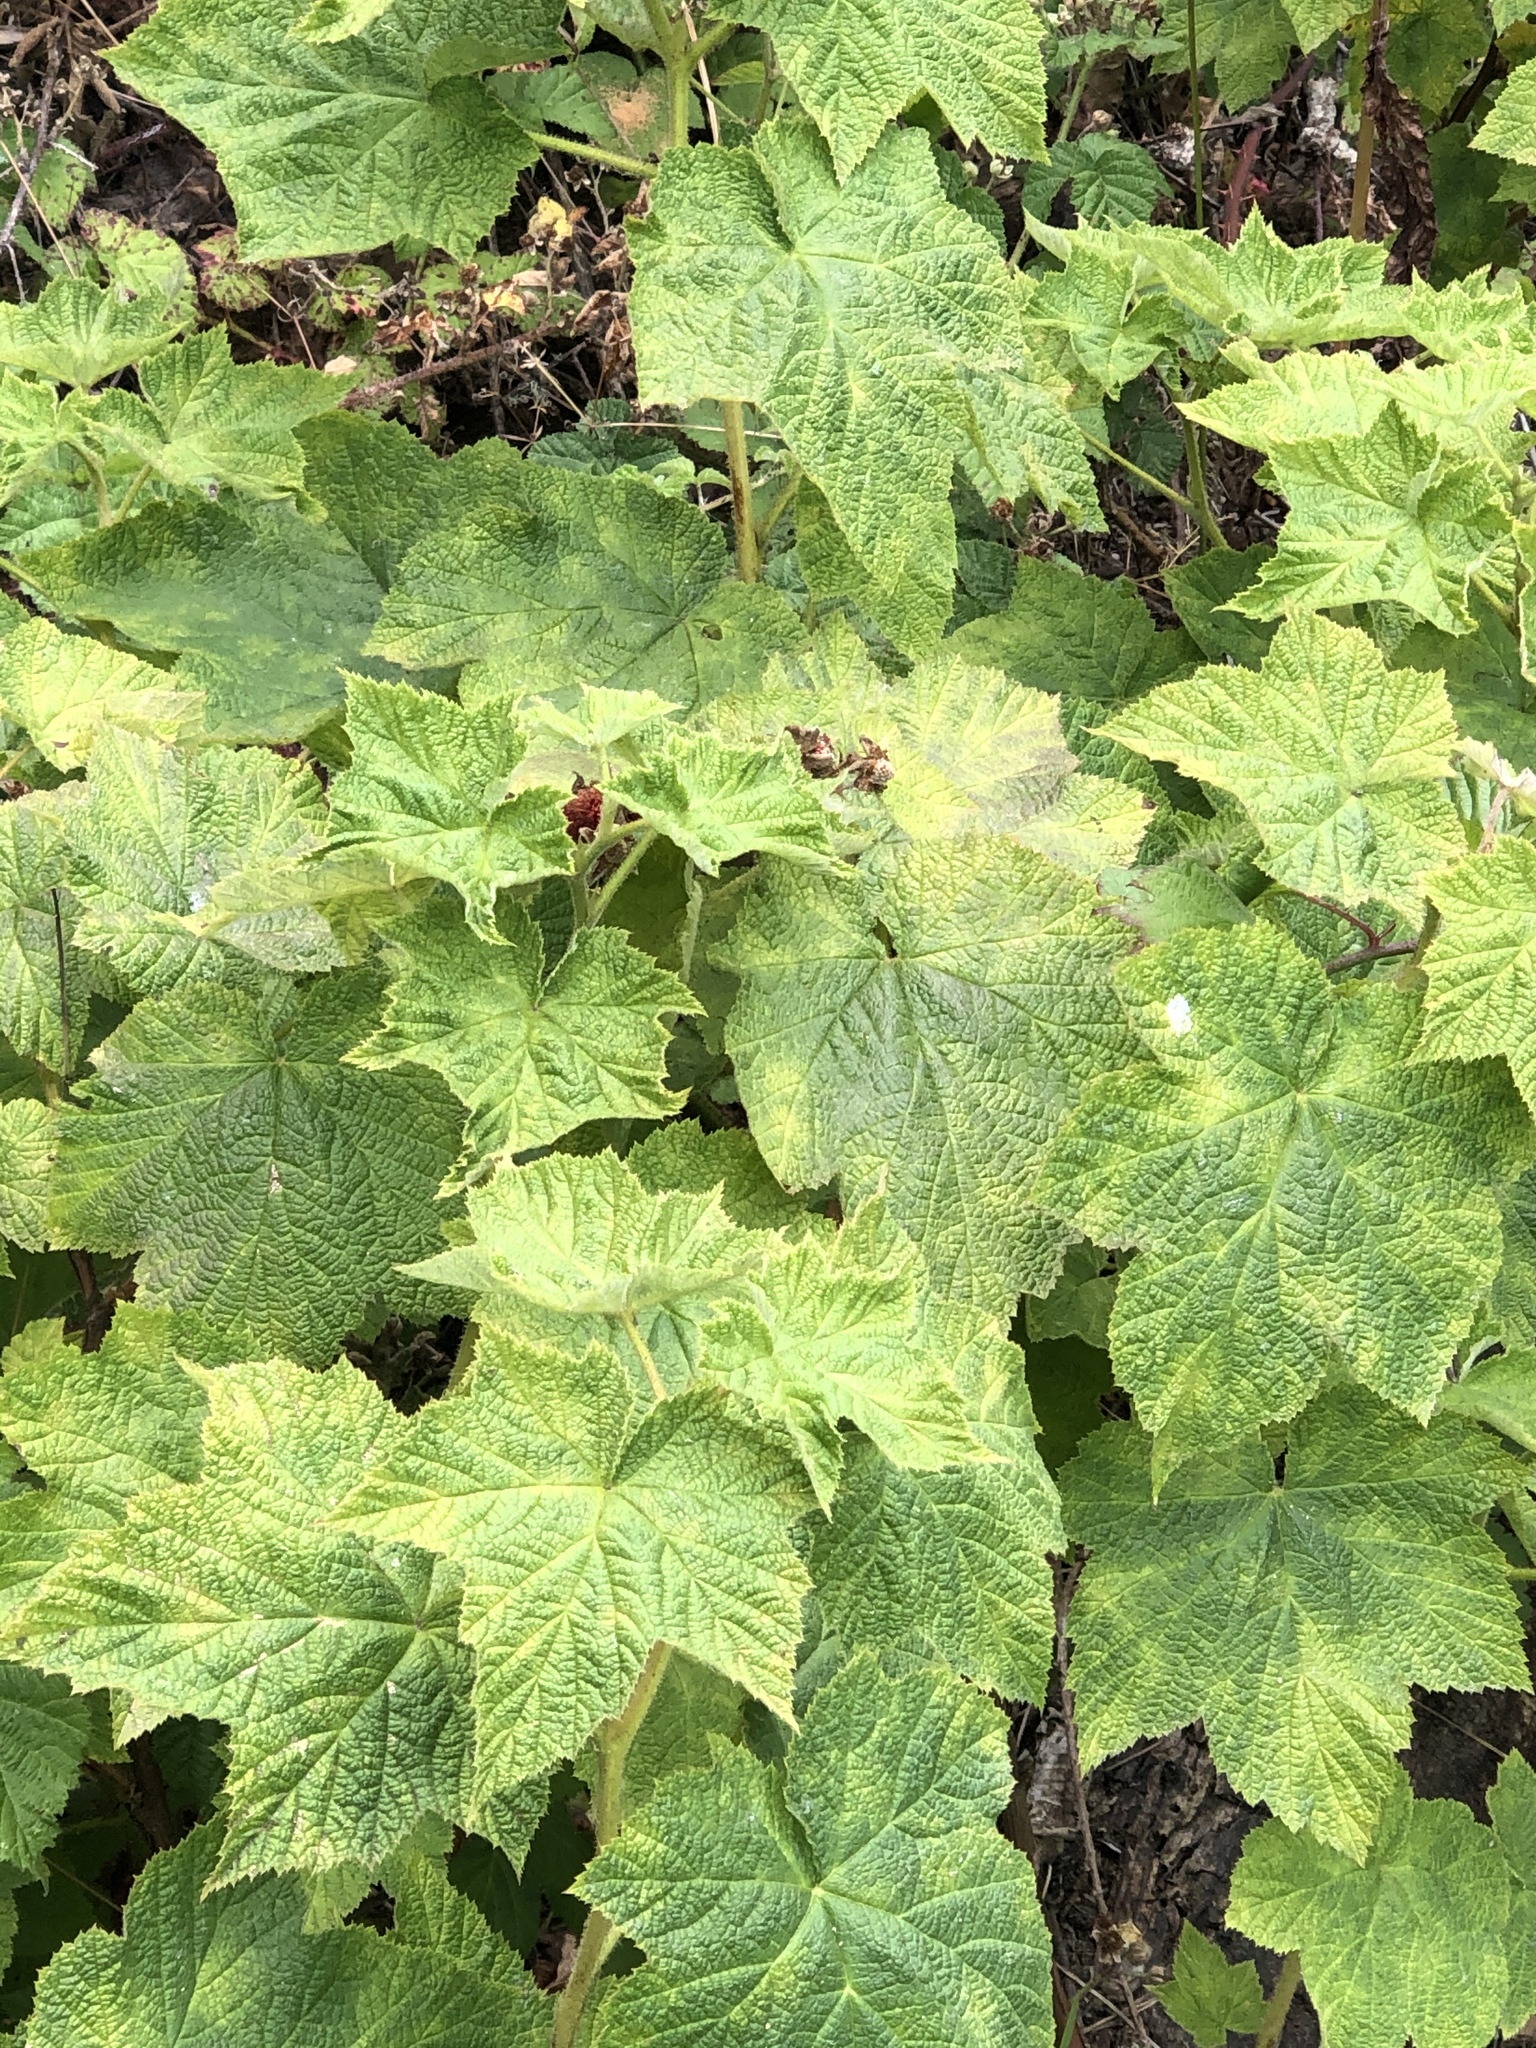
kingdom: Plantae
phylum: Tracheophyta
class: Magnoliopsida
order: Rosales
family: Rosaceae
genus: Rubus
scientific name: Rubus parviflorus
